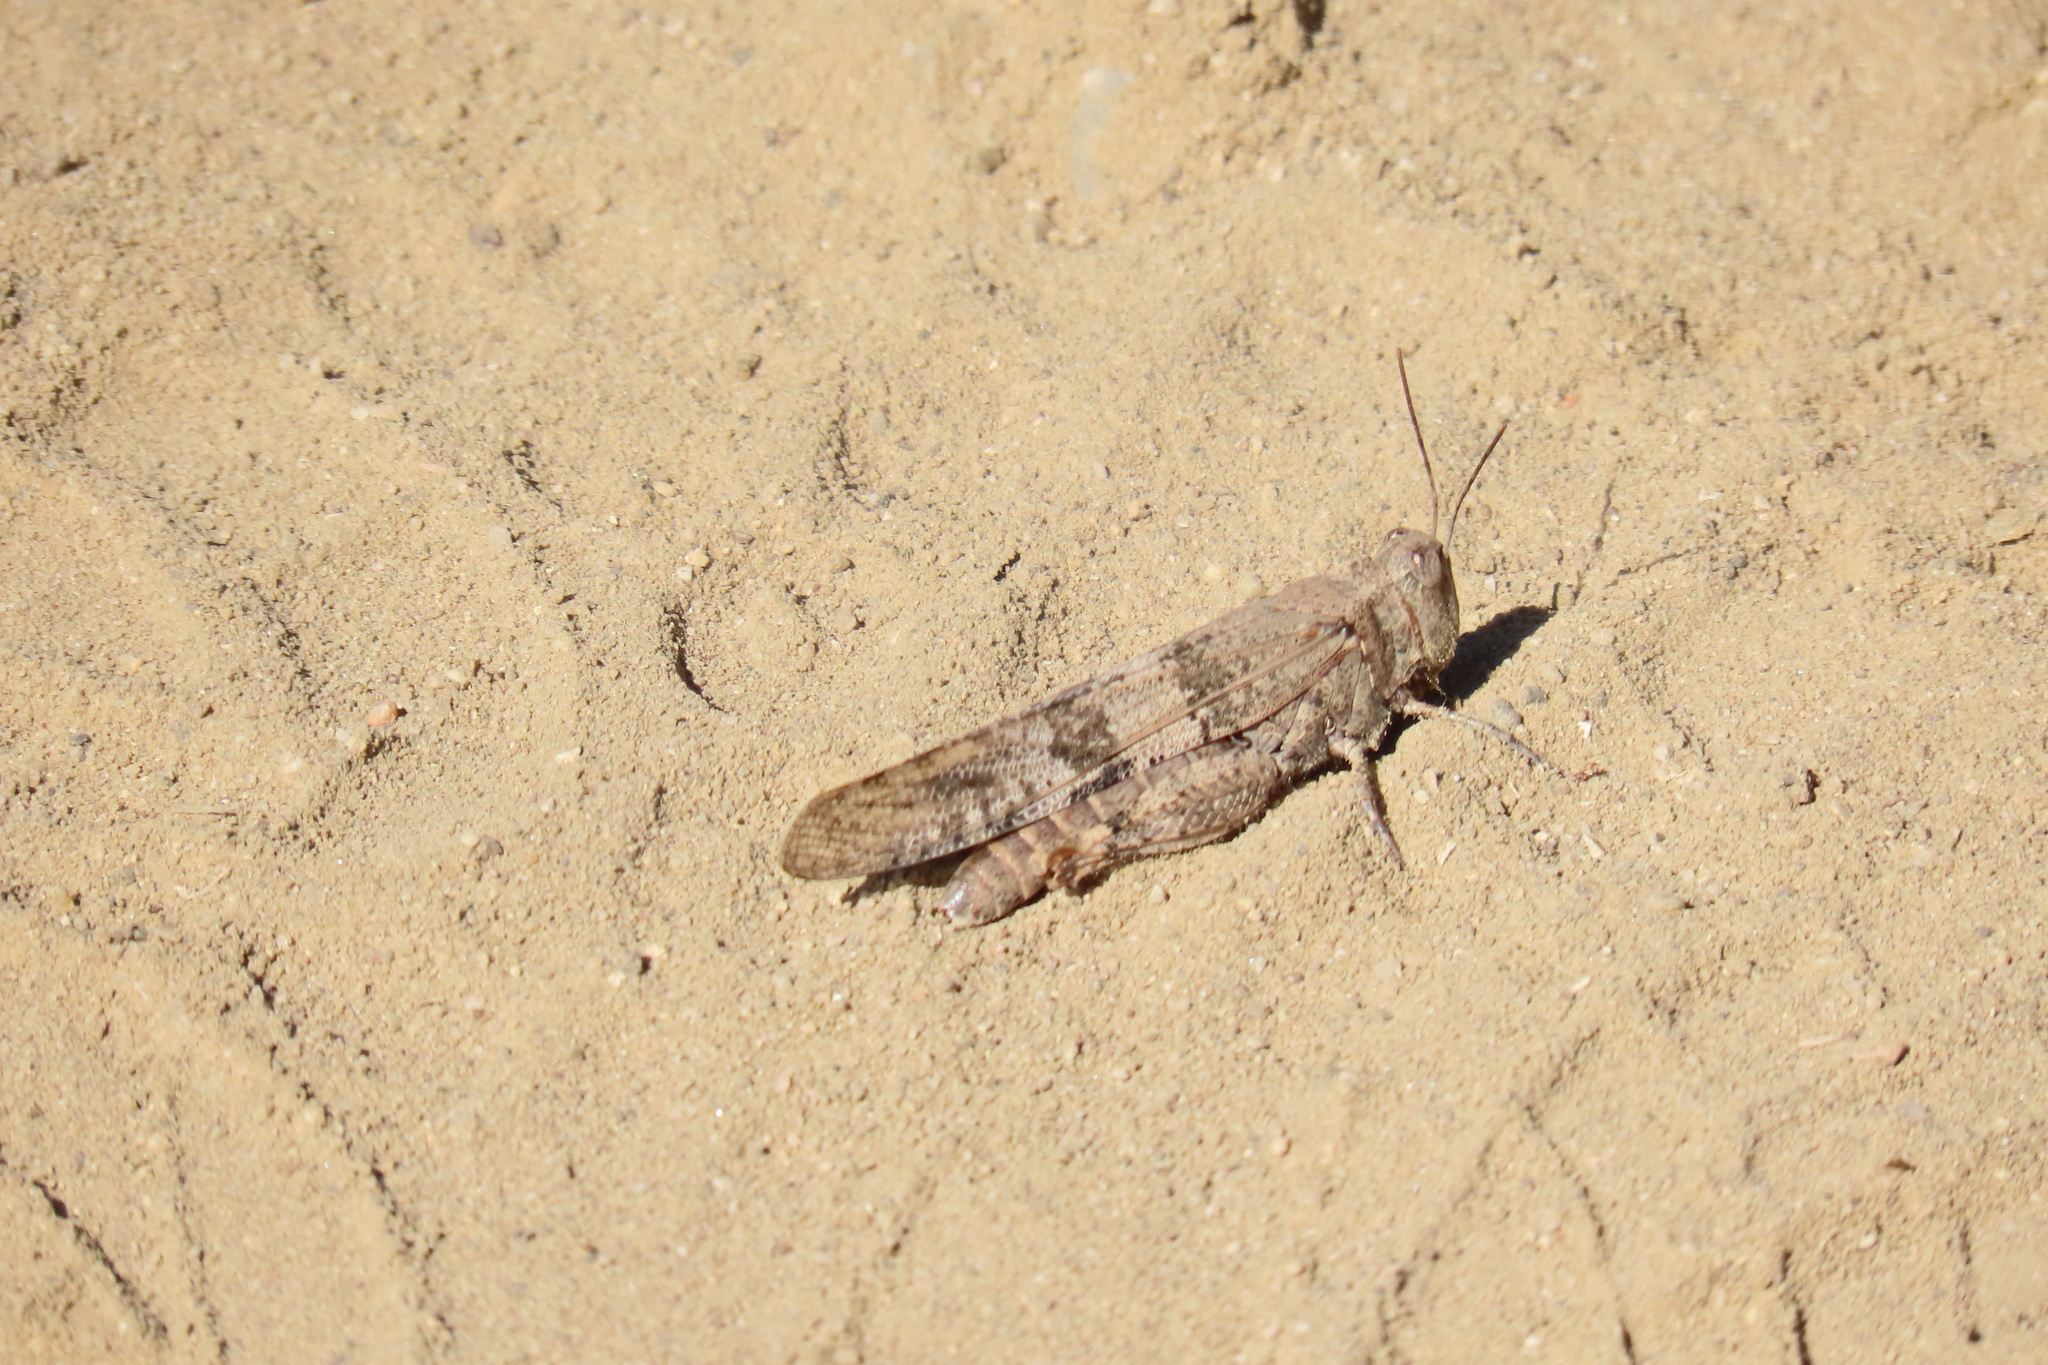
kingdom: Animalia
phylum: Arthropoda
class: Insecta
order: Orthoptera
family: Acrididae
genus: Trimerotropis
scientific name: Trimerotropis pallidipennis
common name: Pallid-winged grasshopper
